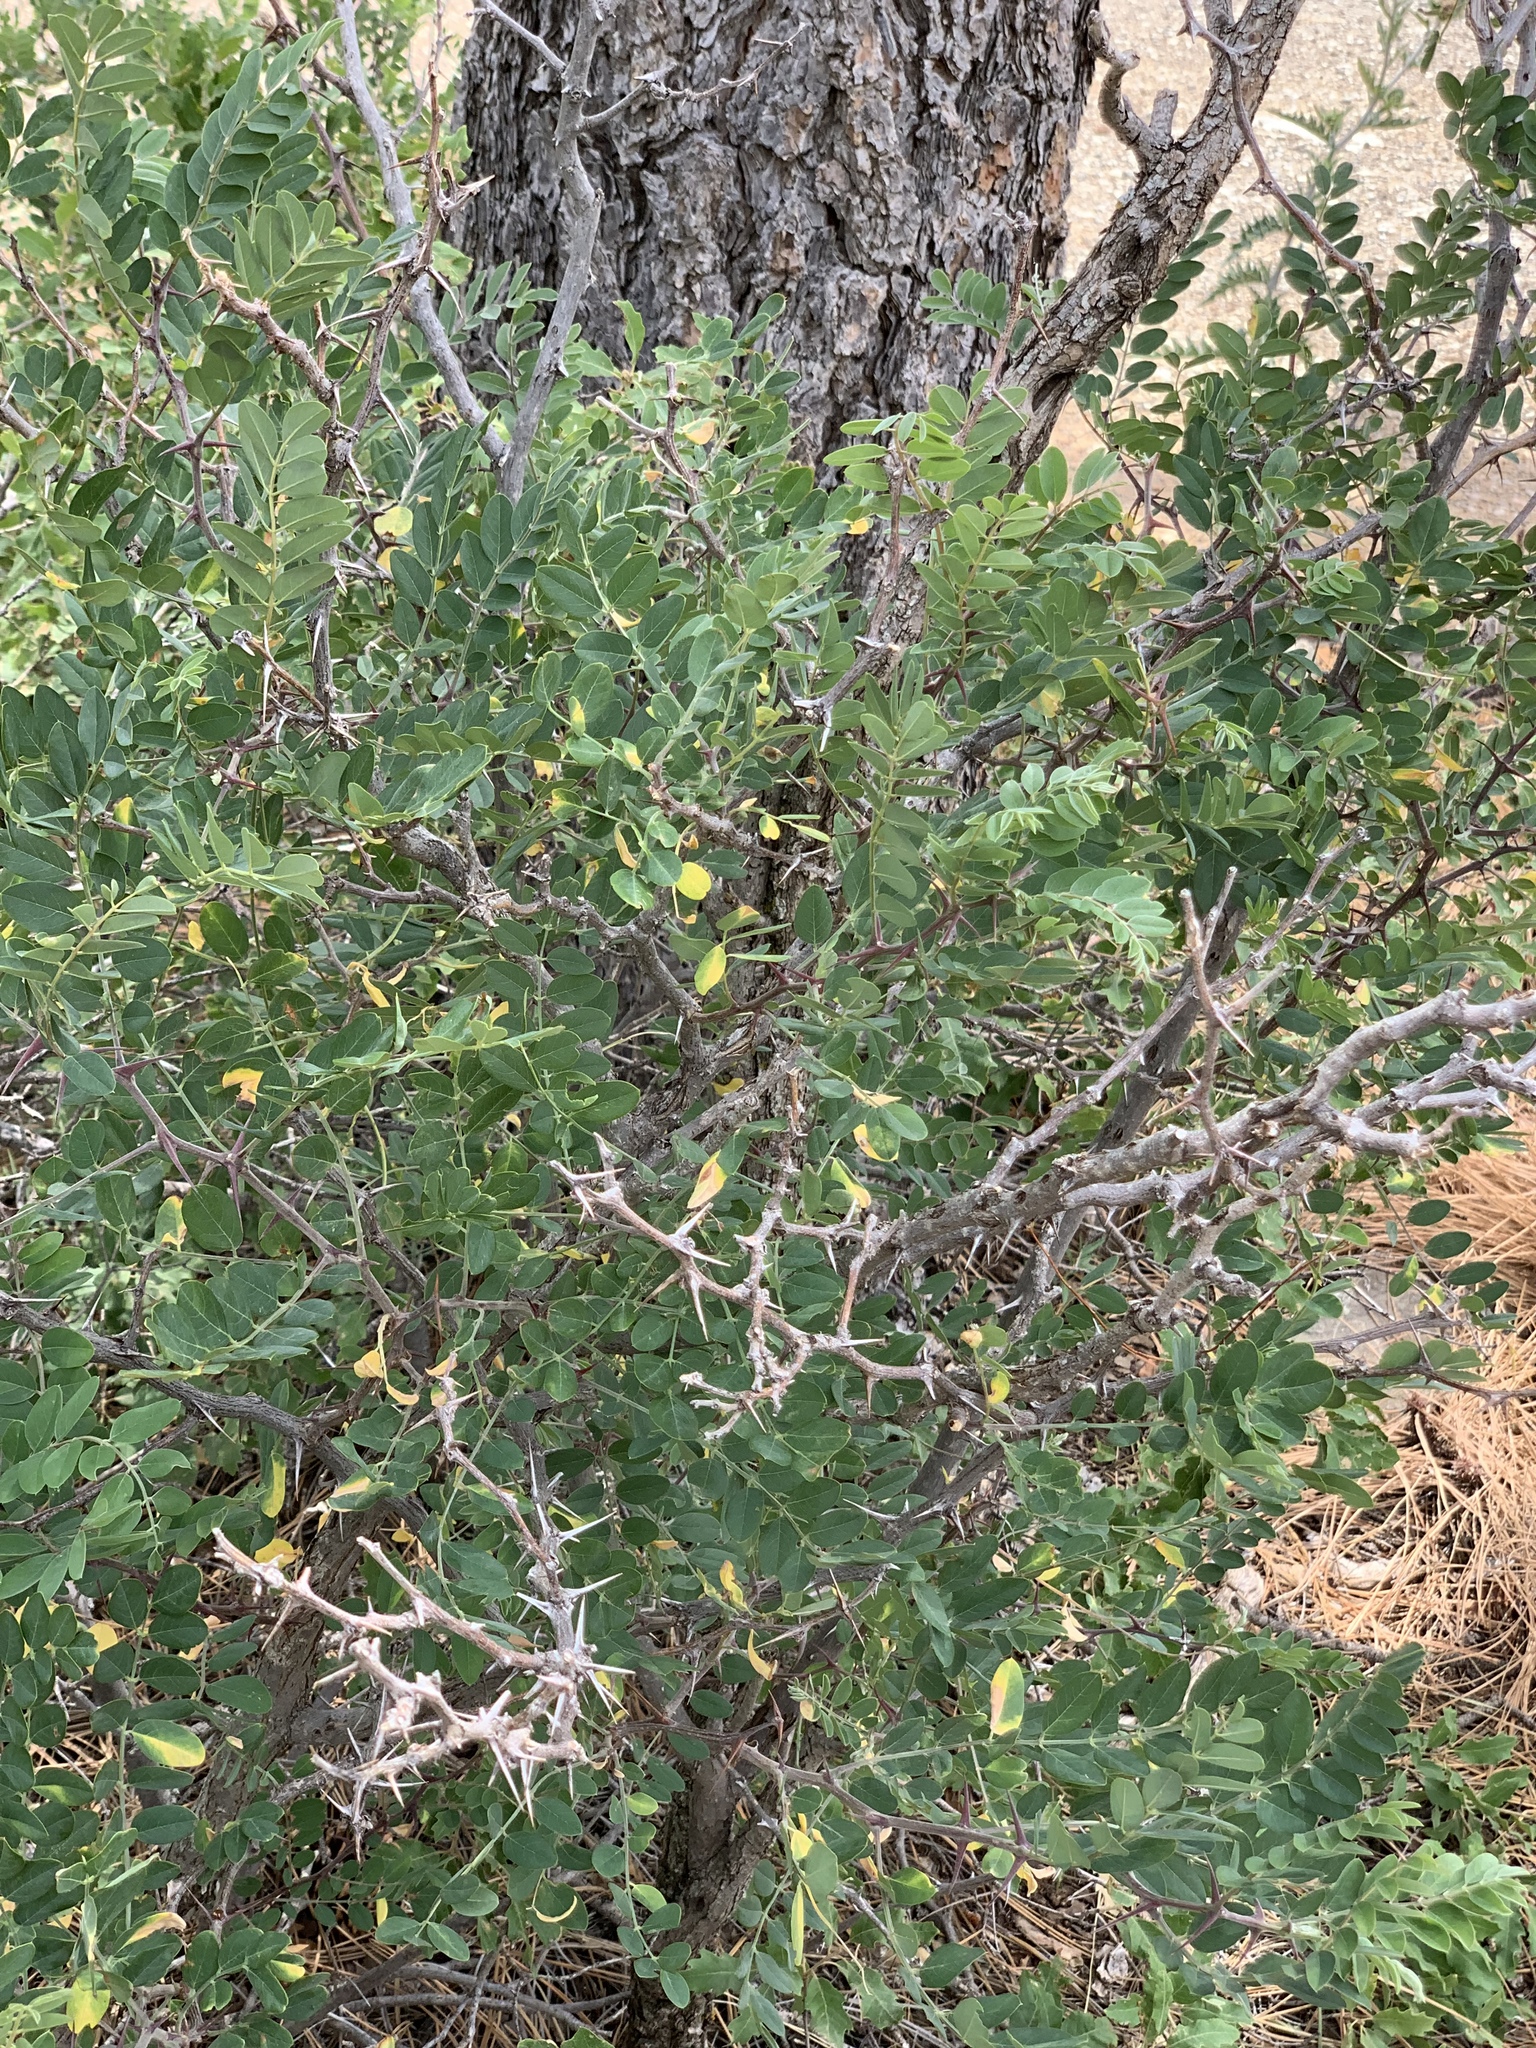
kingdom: Plantae
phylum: Tracheophyta
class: Magnoliopsida
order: Fabales
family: Fabaceae
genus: Robinia
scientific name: Robinia neomexicana
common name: New mexico locust
